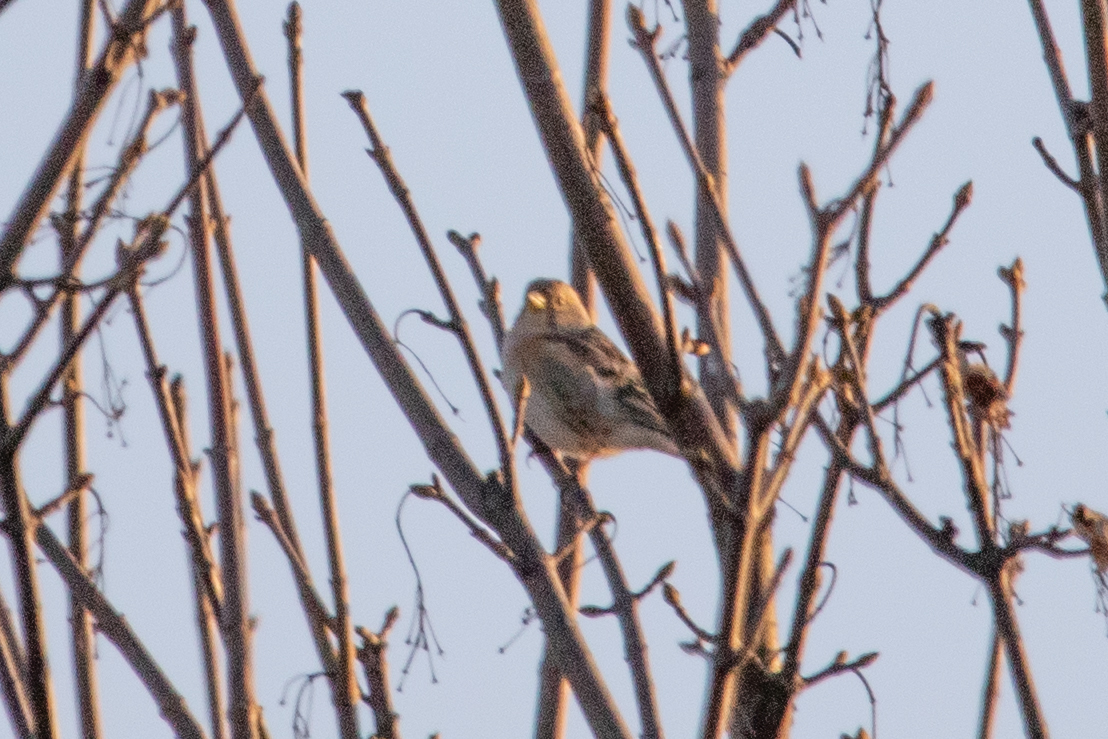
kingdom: Animalia
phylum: Chordata
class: Aves
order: Passeriformes
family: Fringillidae
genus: Fringilla
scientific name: Fringilla montifringilla
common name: Brambling
